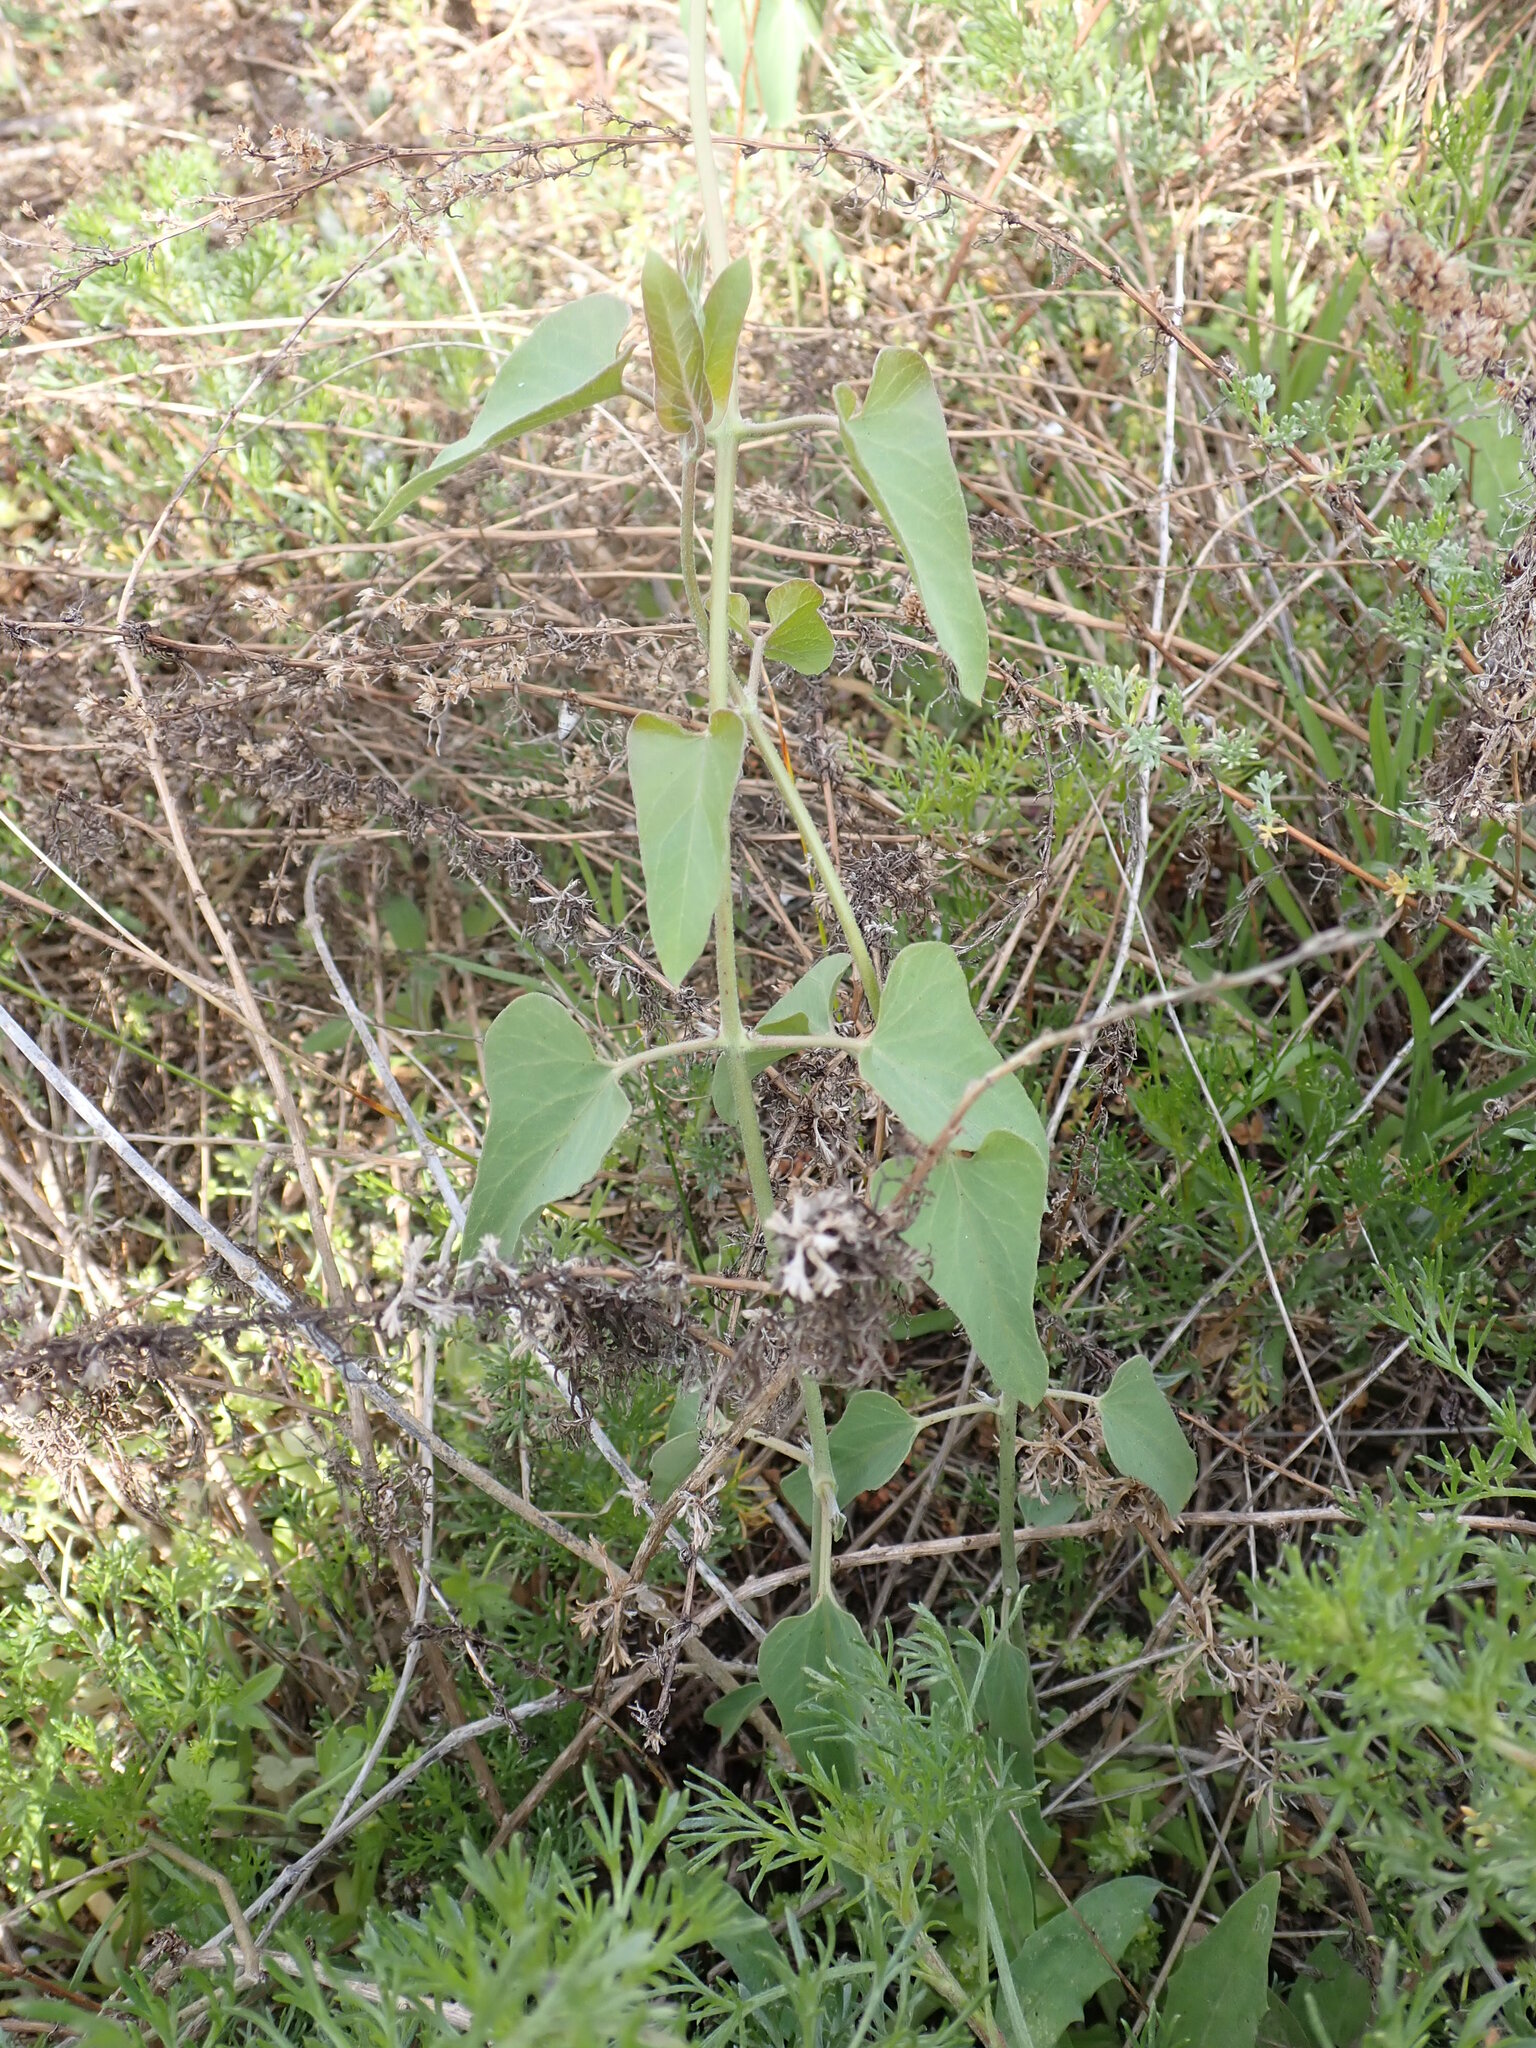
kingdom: Plantae
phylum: Tracheophyta
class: Magnoliopsida
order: Gentianales
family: Apocynaceae
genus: Cynanchum
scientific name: Cynanchum acutum
